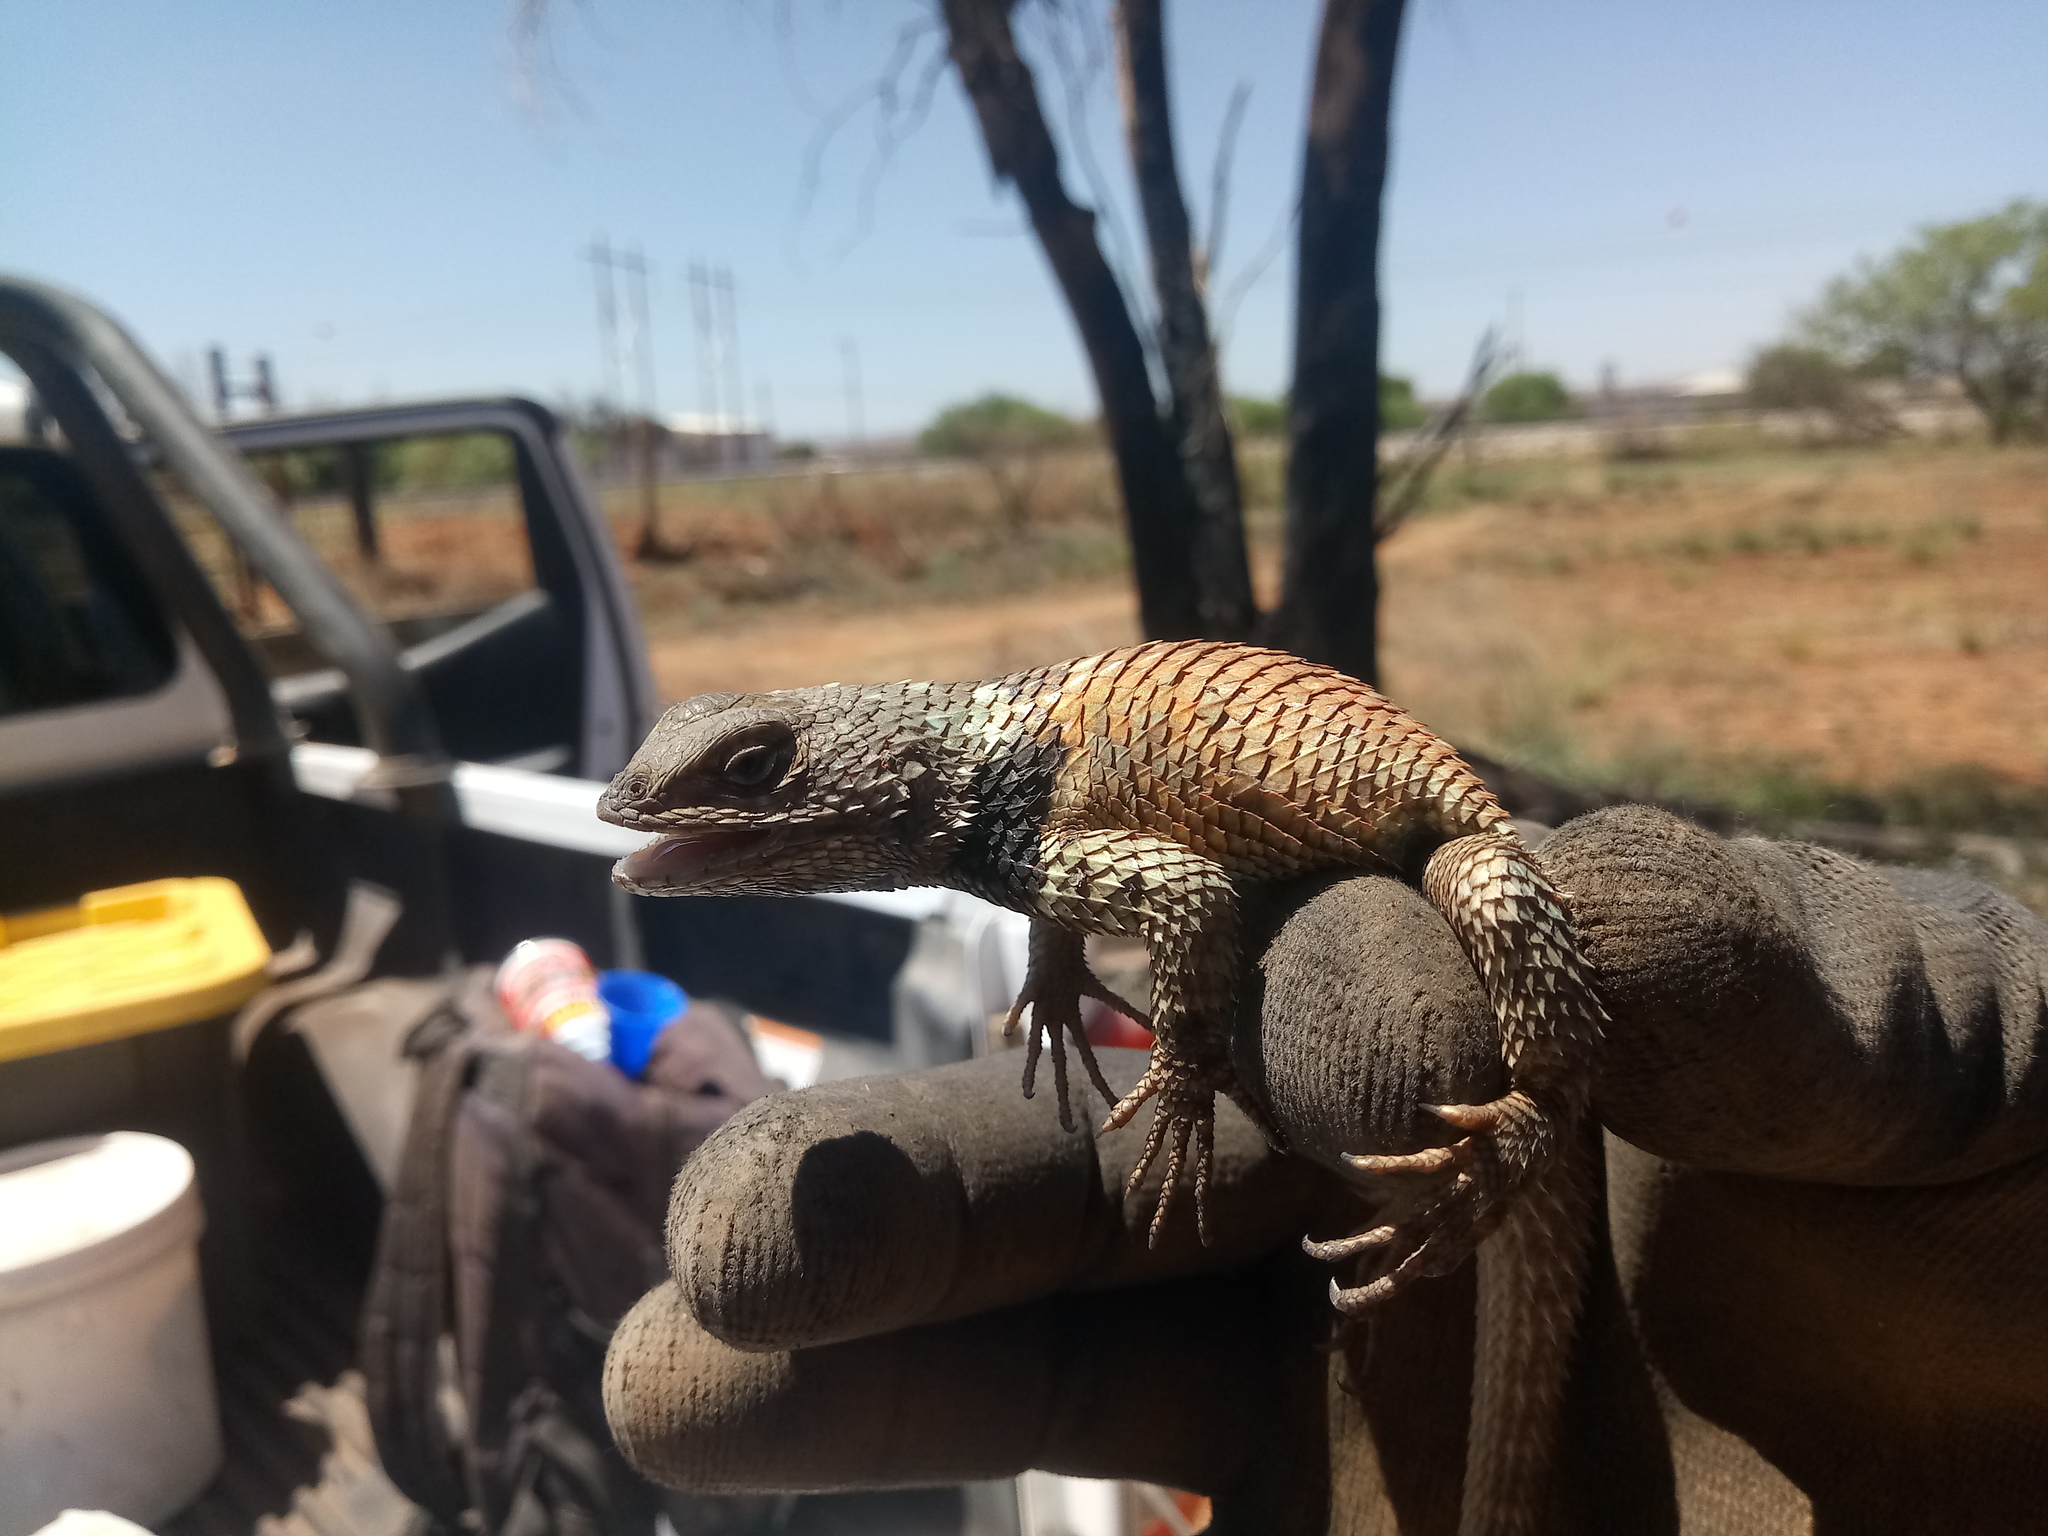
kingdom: Animalia
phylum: Chordata
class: Squamata
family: Phrynosomatidae
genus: Sceloporus
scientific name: Sceloporus torquatus
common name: Central plateau torquate lizard [melanogaster]
